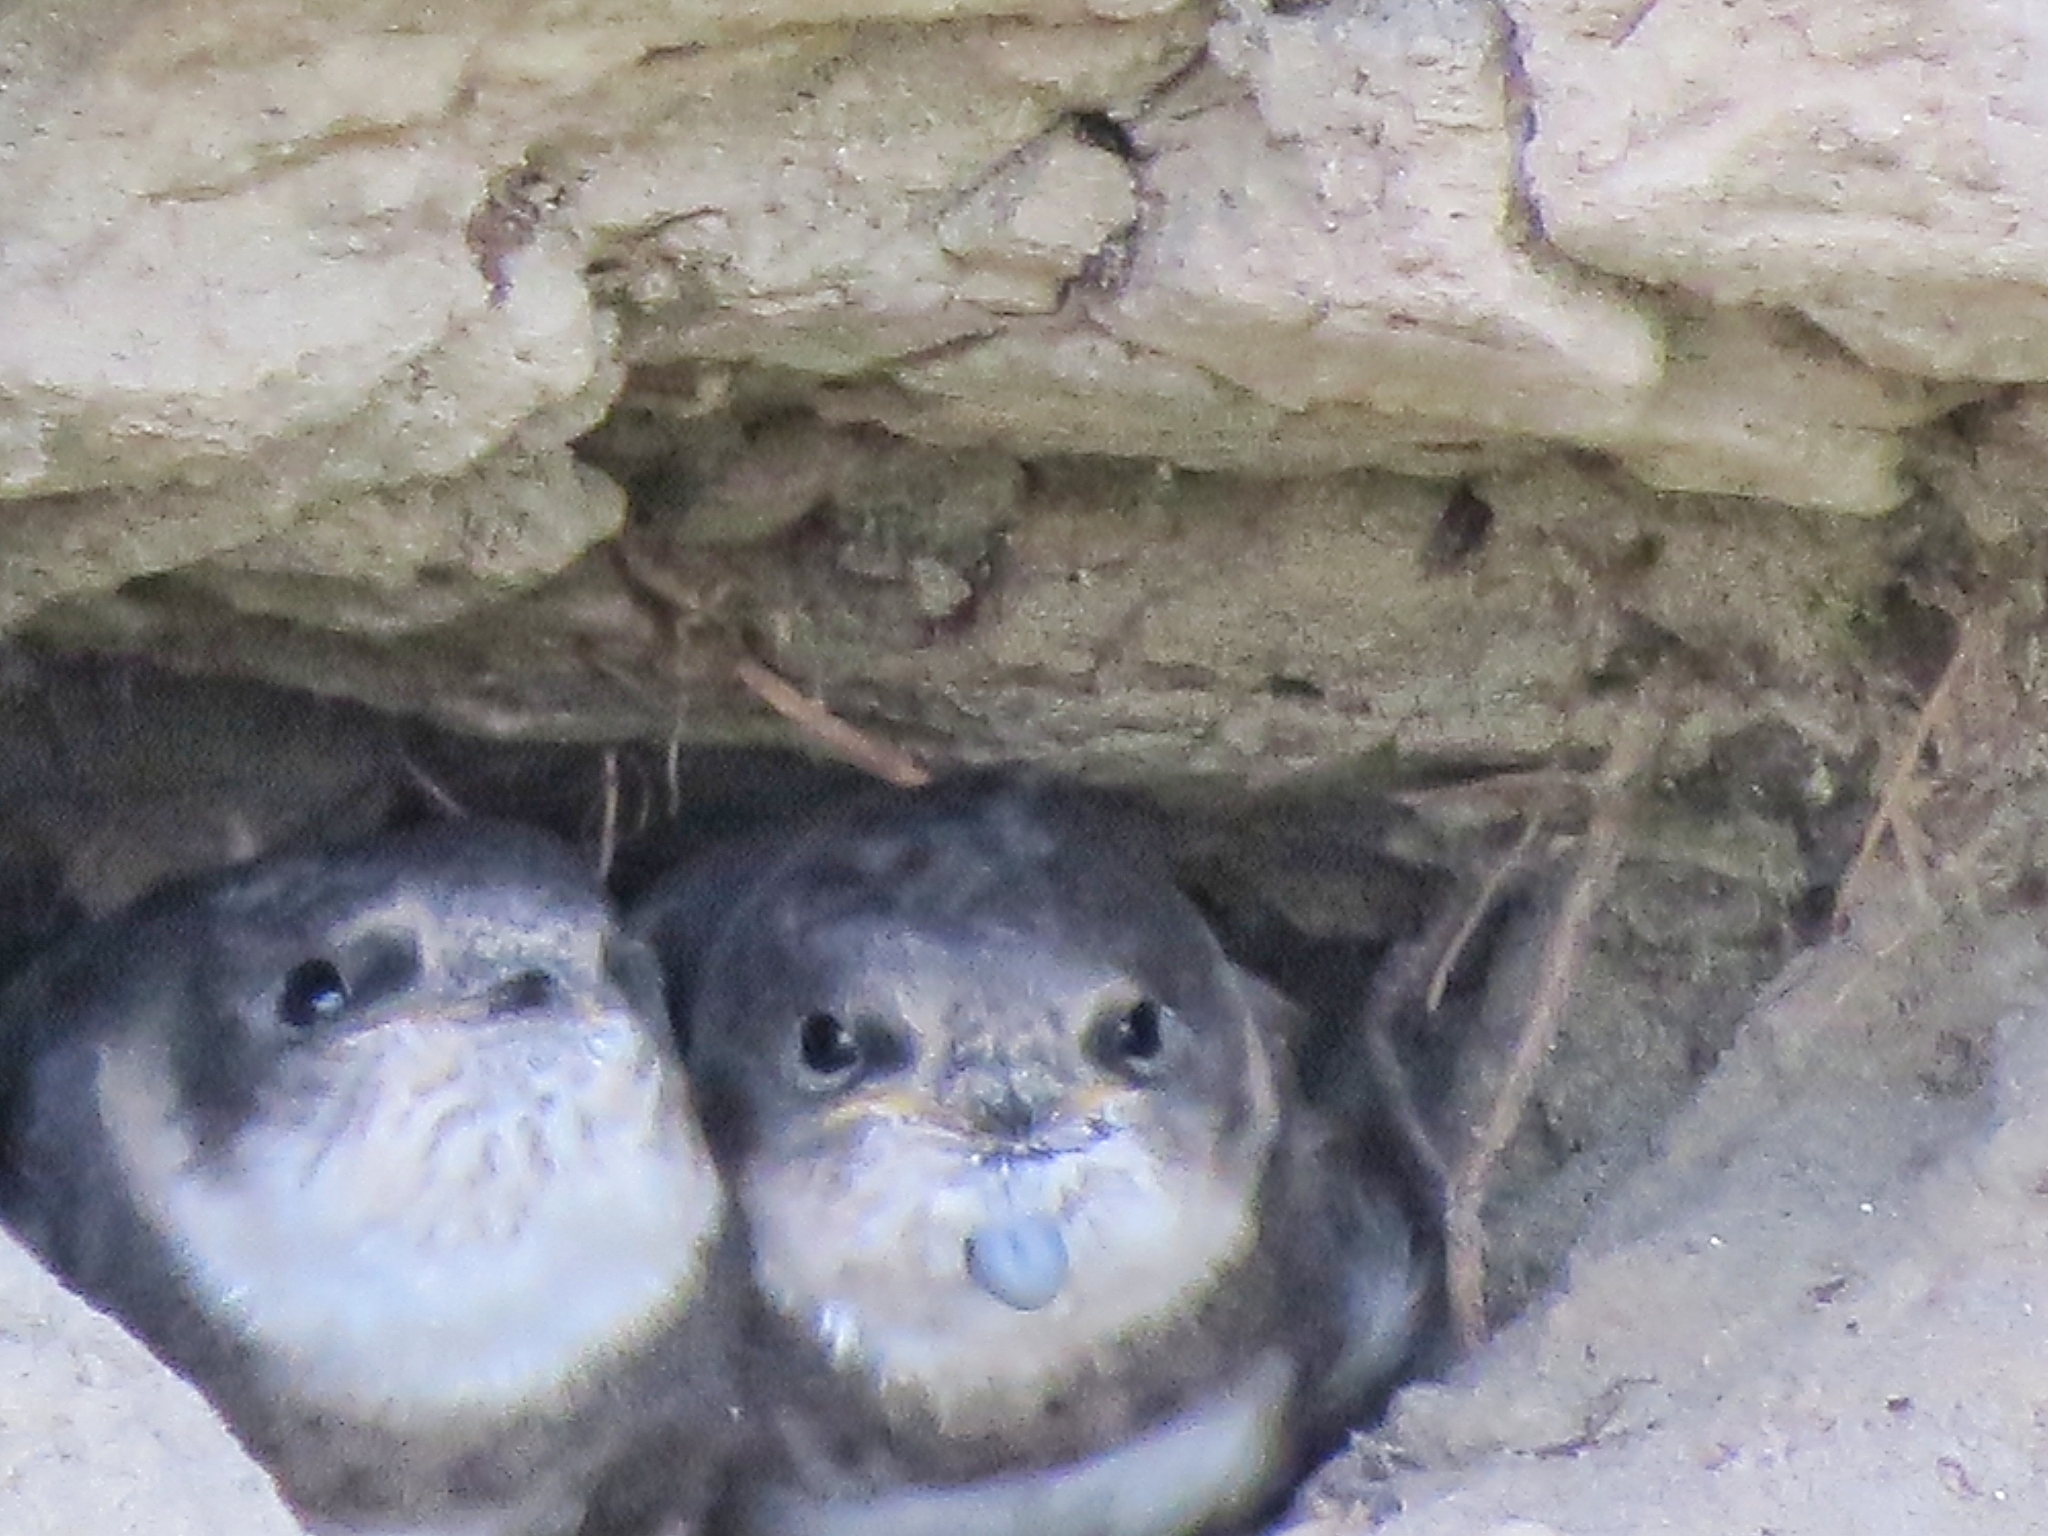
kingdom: Animalia
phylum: Chordata
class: Aves
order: Passeriformes
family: Hirundinidae
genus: Riparia
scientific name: Riparia riparia
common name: Sand martin
